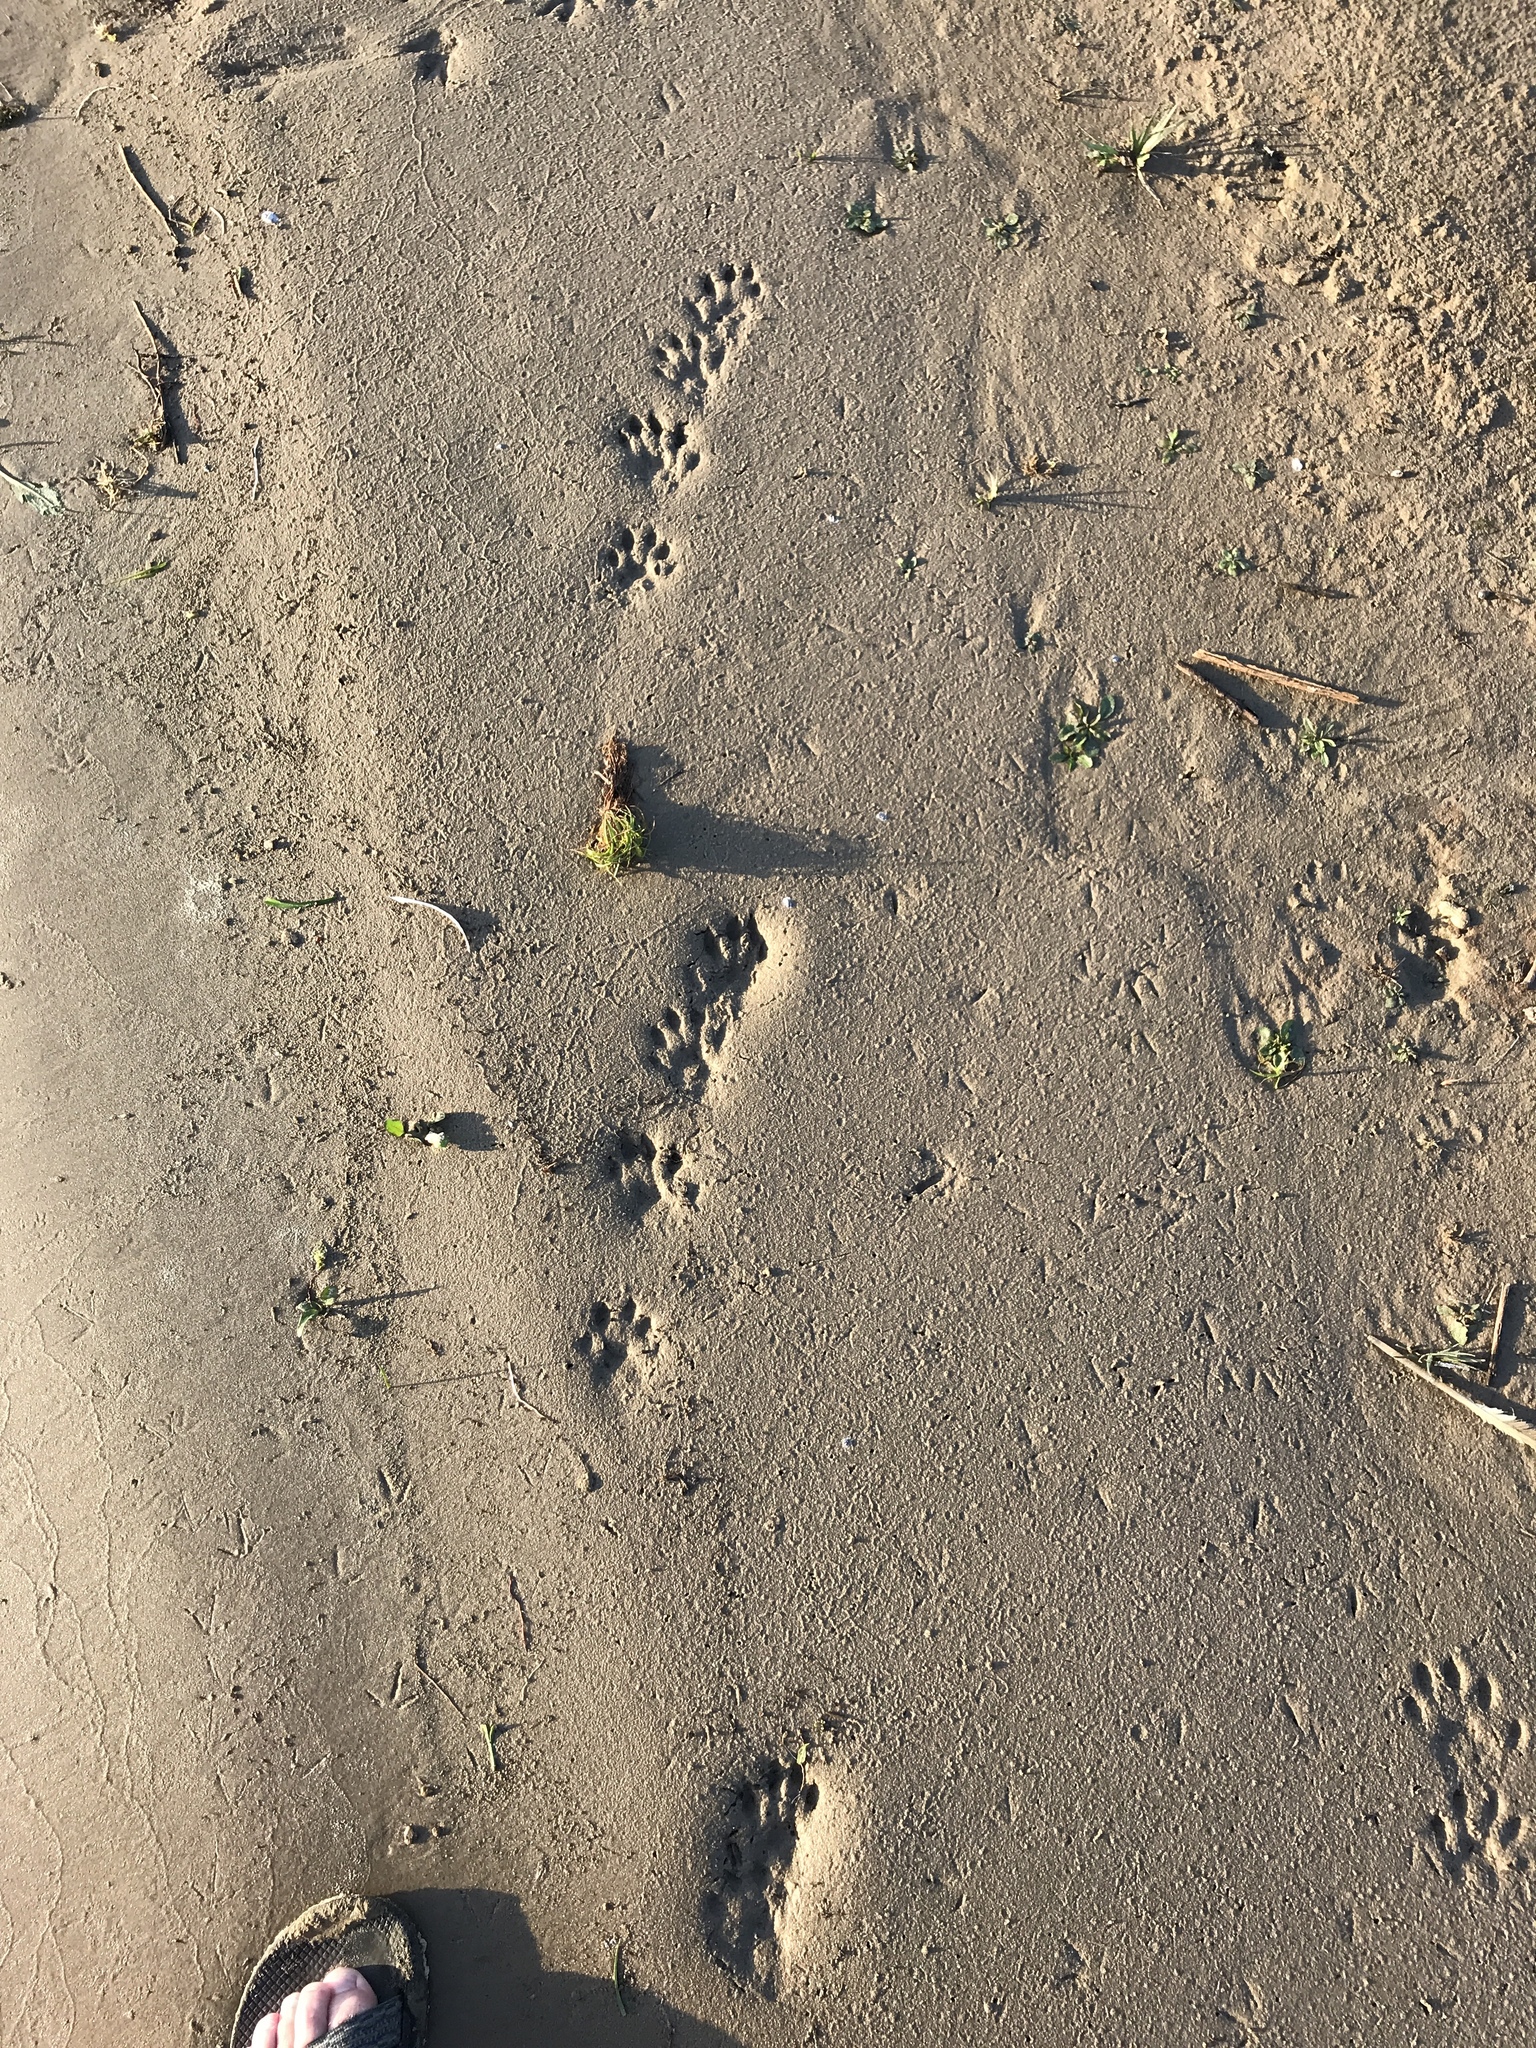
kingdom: Animalia
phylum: Chordata
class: Mammalia
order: Carnivora
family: Mustelidae
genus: Lontra
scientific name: Lontra canadensis
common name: North american river otter
